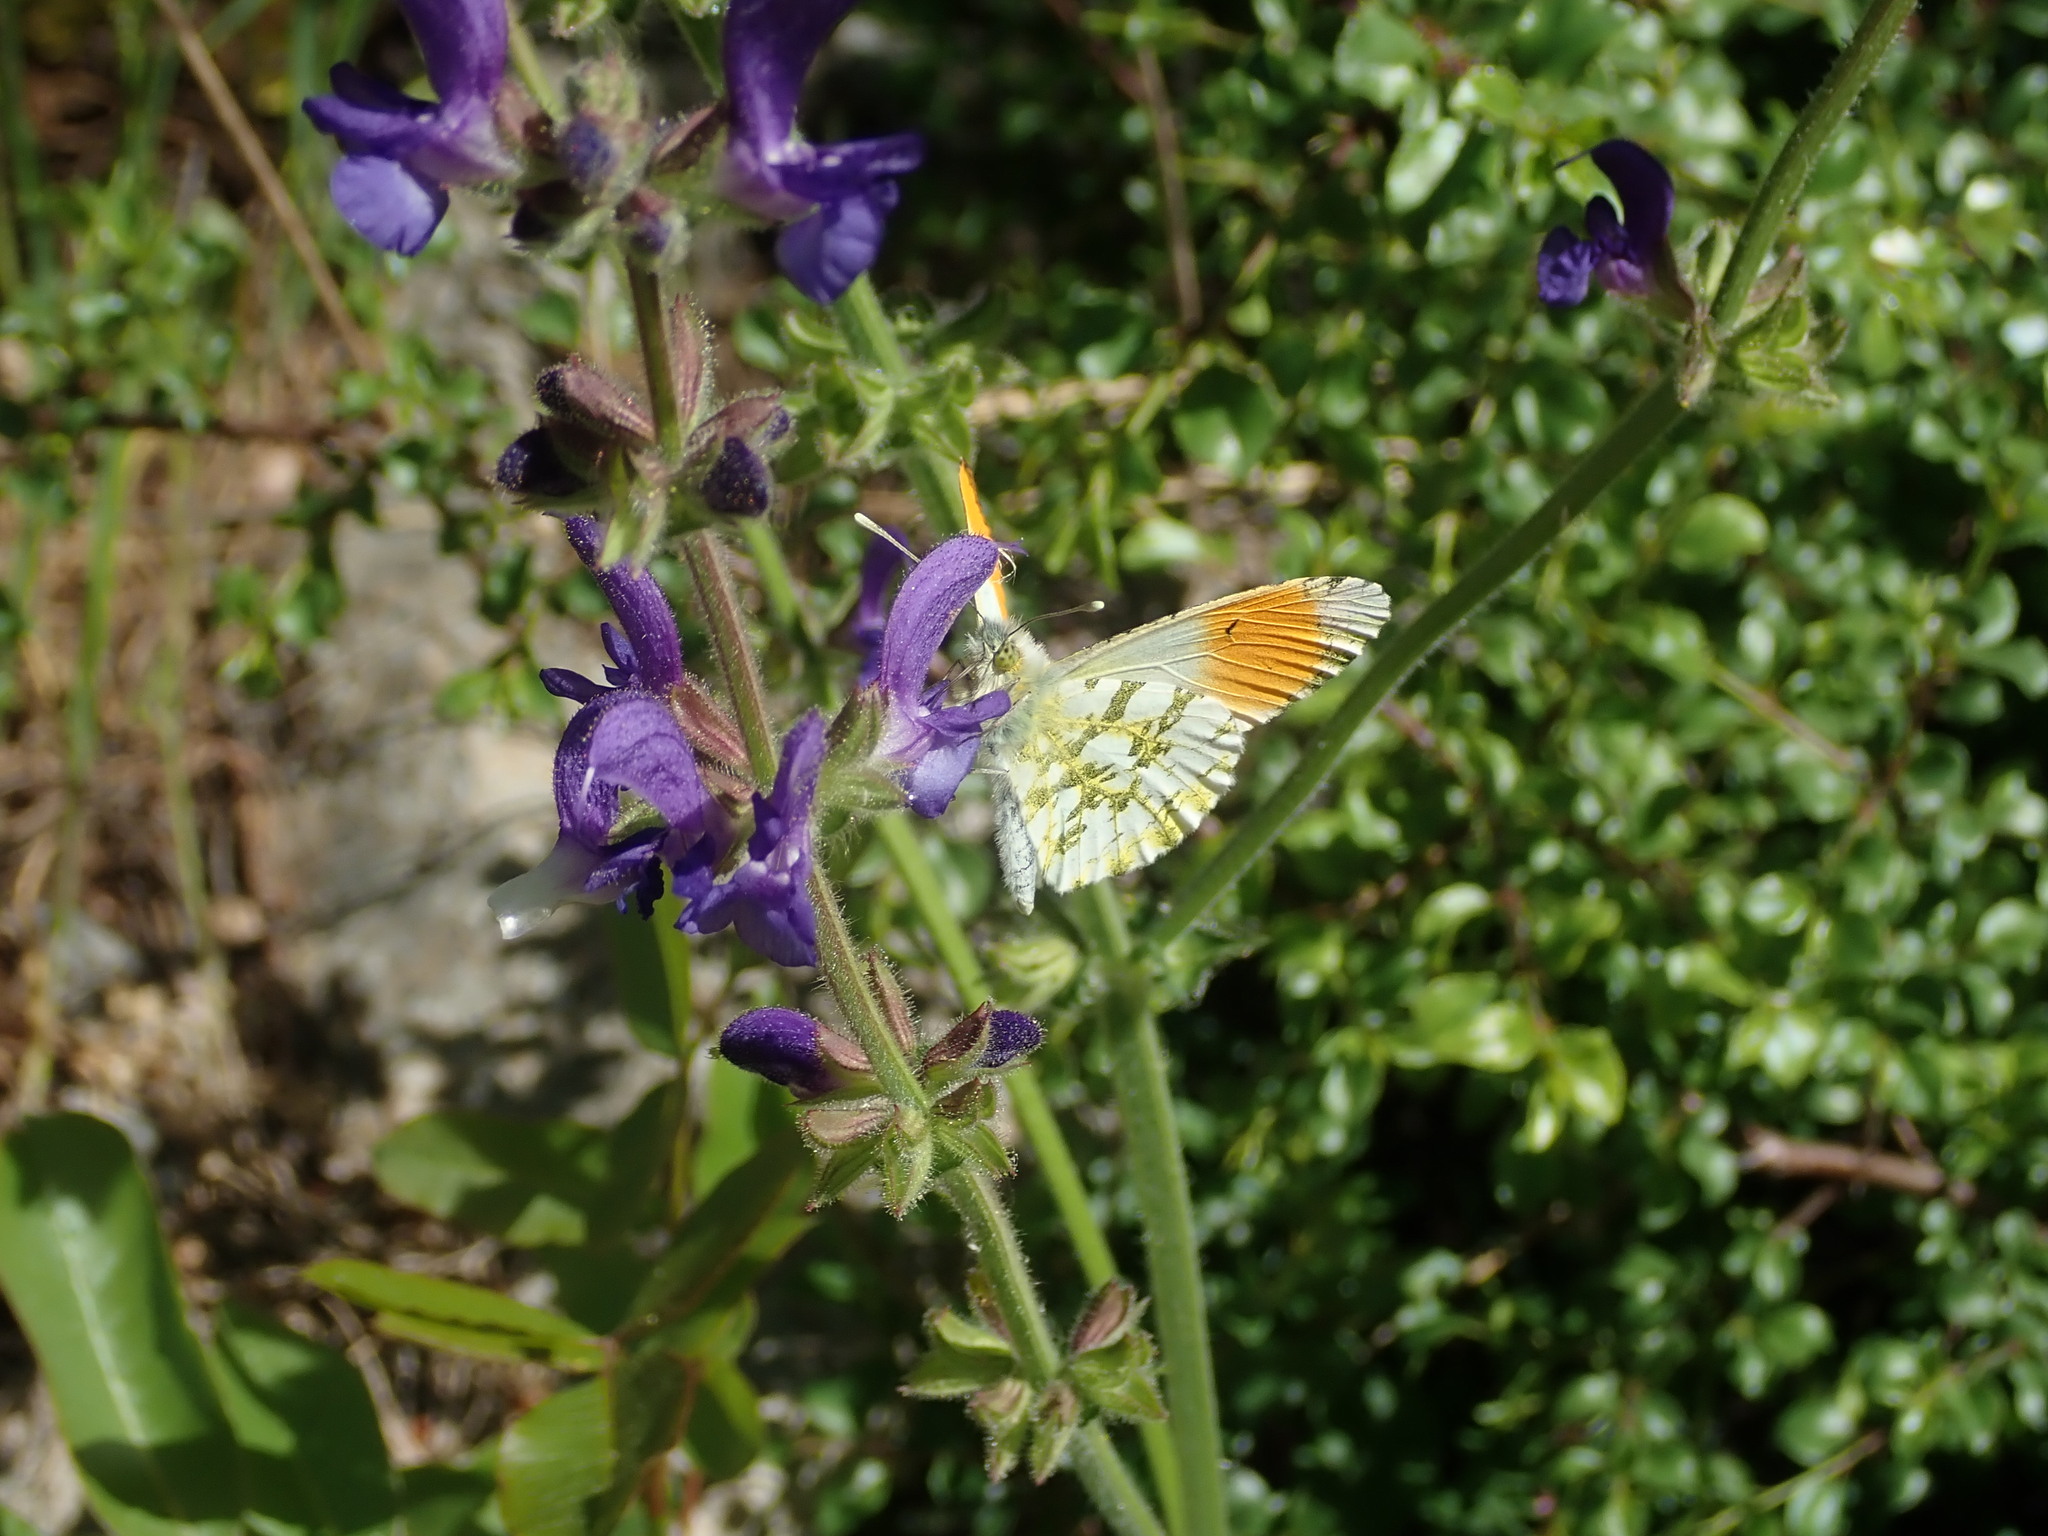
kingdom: Animalia
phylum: Arthropoda
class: Insecta
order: Lepidoptera
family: Pieridae
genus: Anthocharis
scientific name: Anthocharis cardamines
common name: Orange-tip
